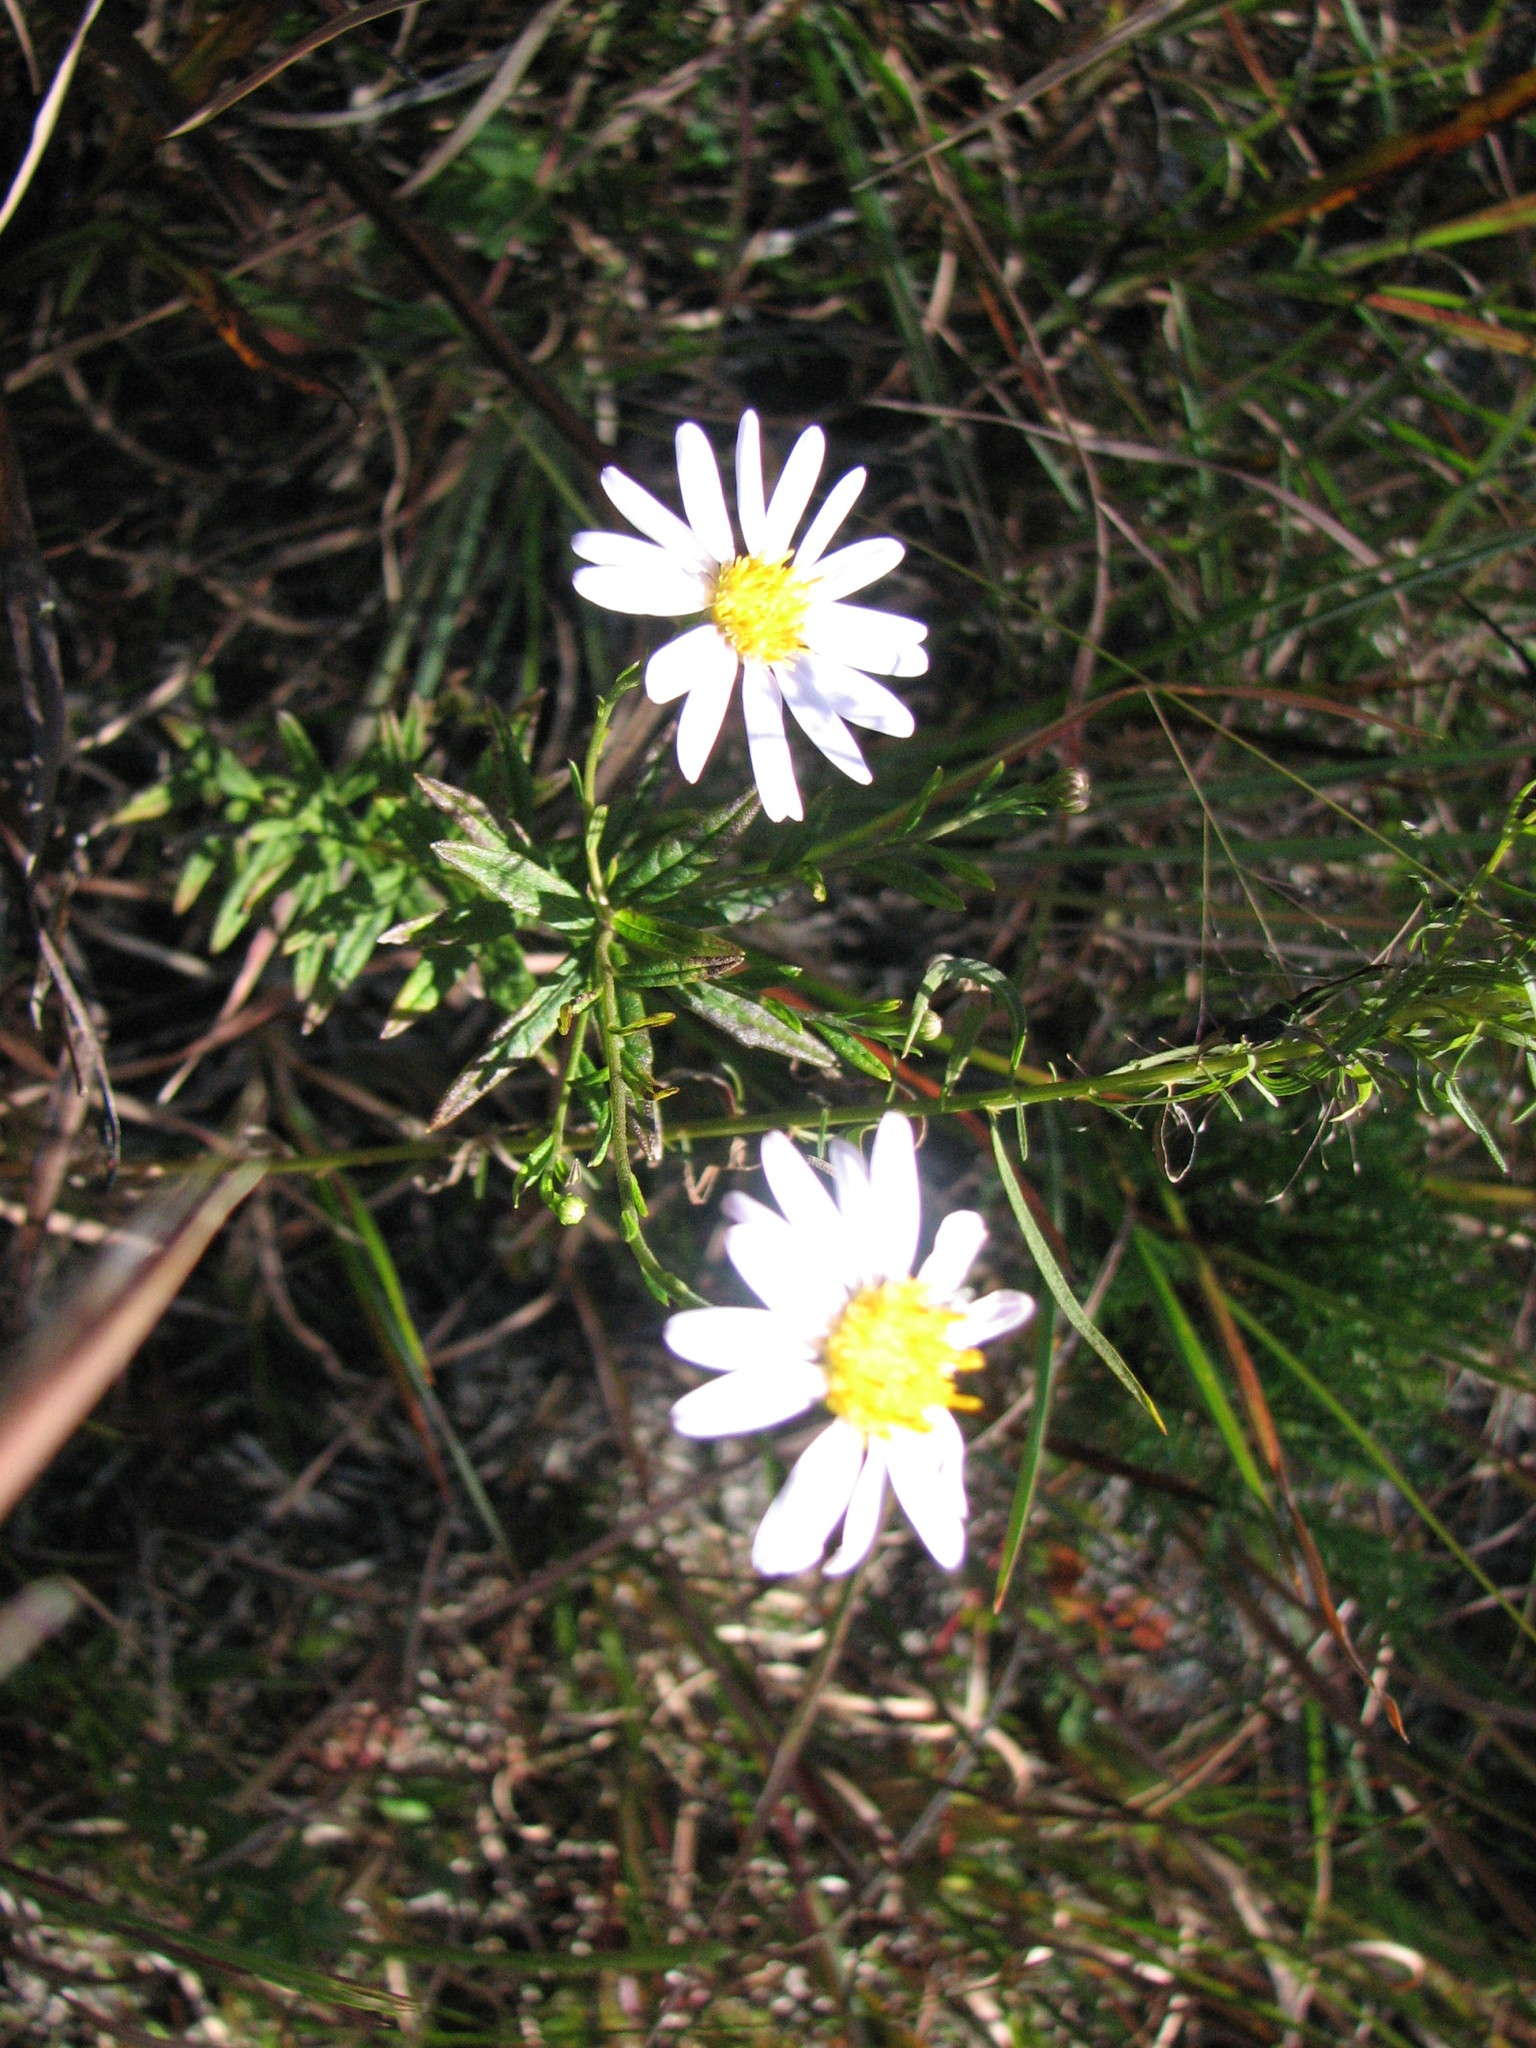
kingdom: Plantae
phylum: Tracheophyta
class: Magnoliopsida
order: Asterales
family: Asteraceae
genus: Ionactis
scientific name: Ionactis linariifolia
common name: Flax-leaf aster
